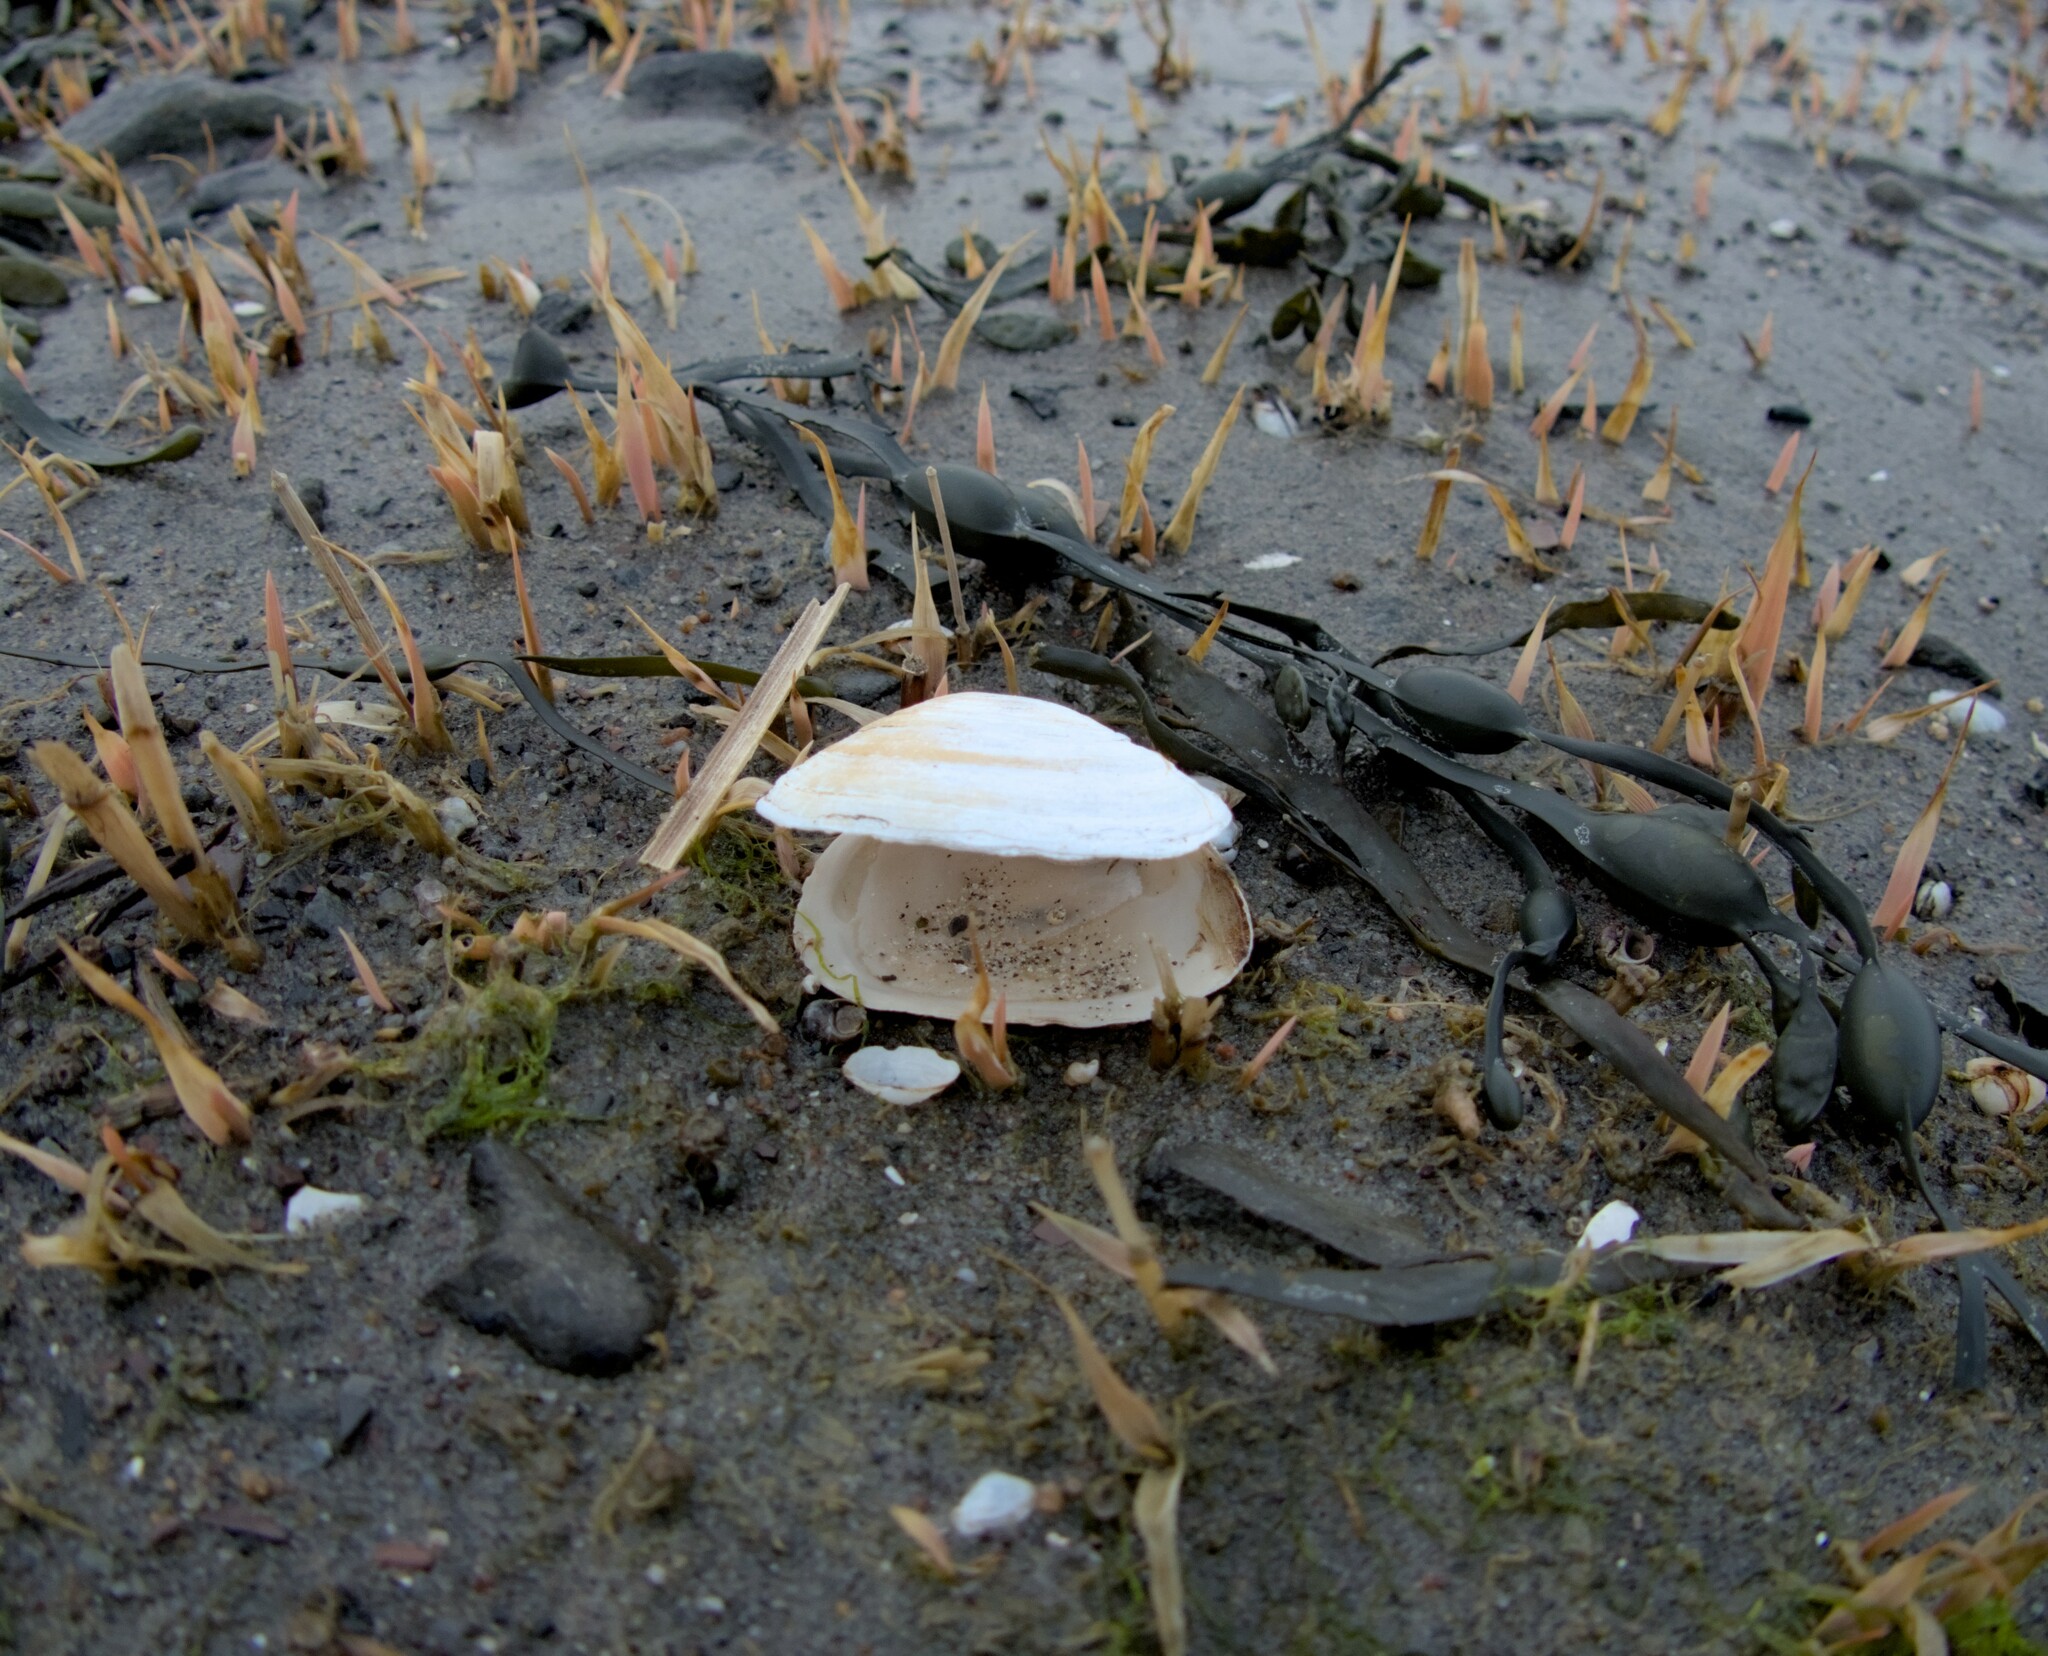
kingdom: Animalia
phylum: Mollusca
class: Bivalvia
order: Myida
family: Myidae
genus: Mya
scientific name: Mya arenaria
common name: Soft-shelled clam
